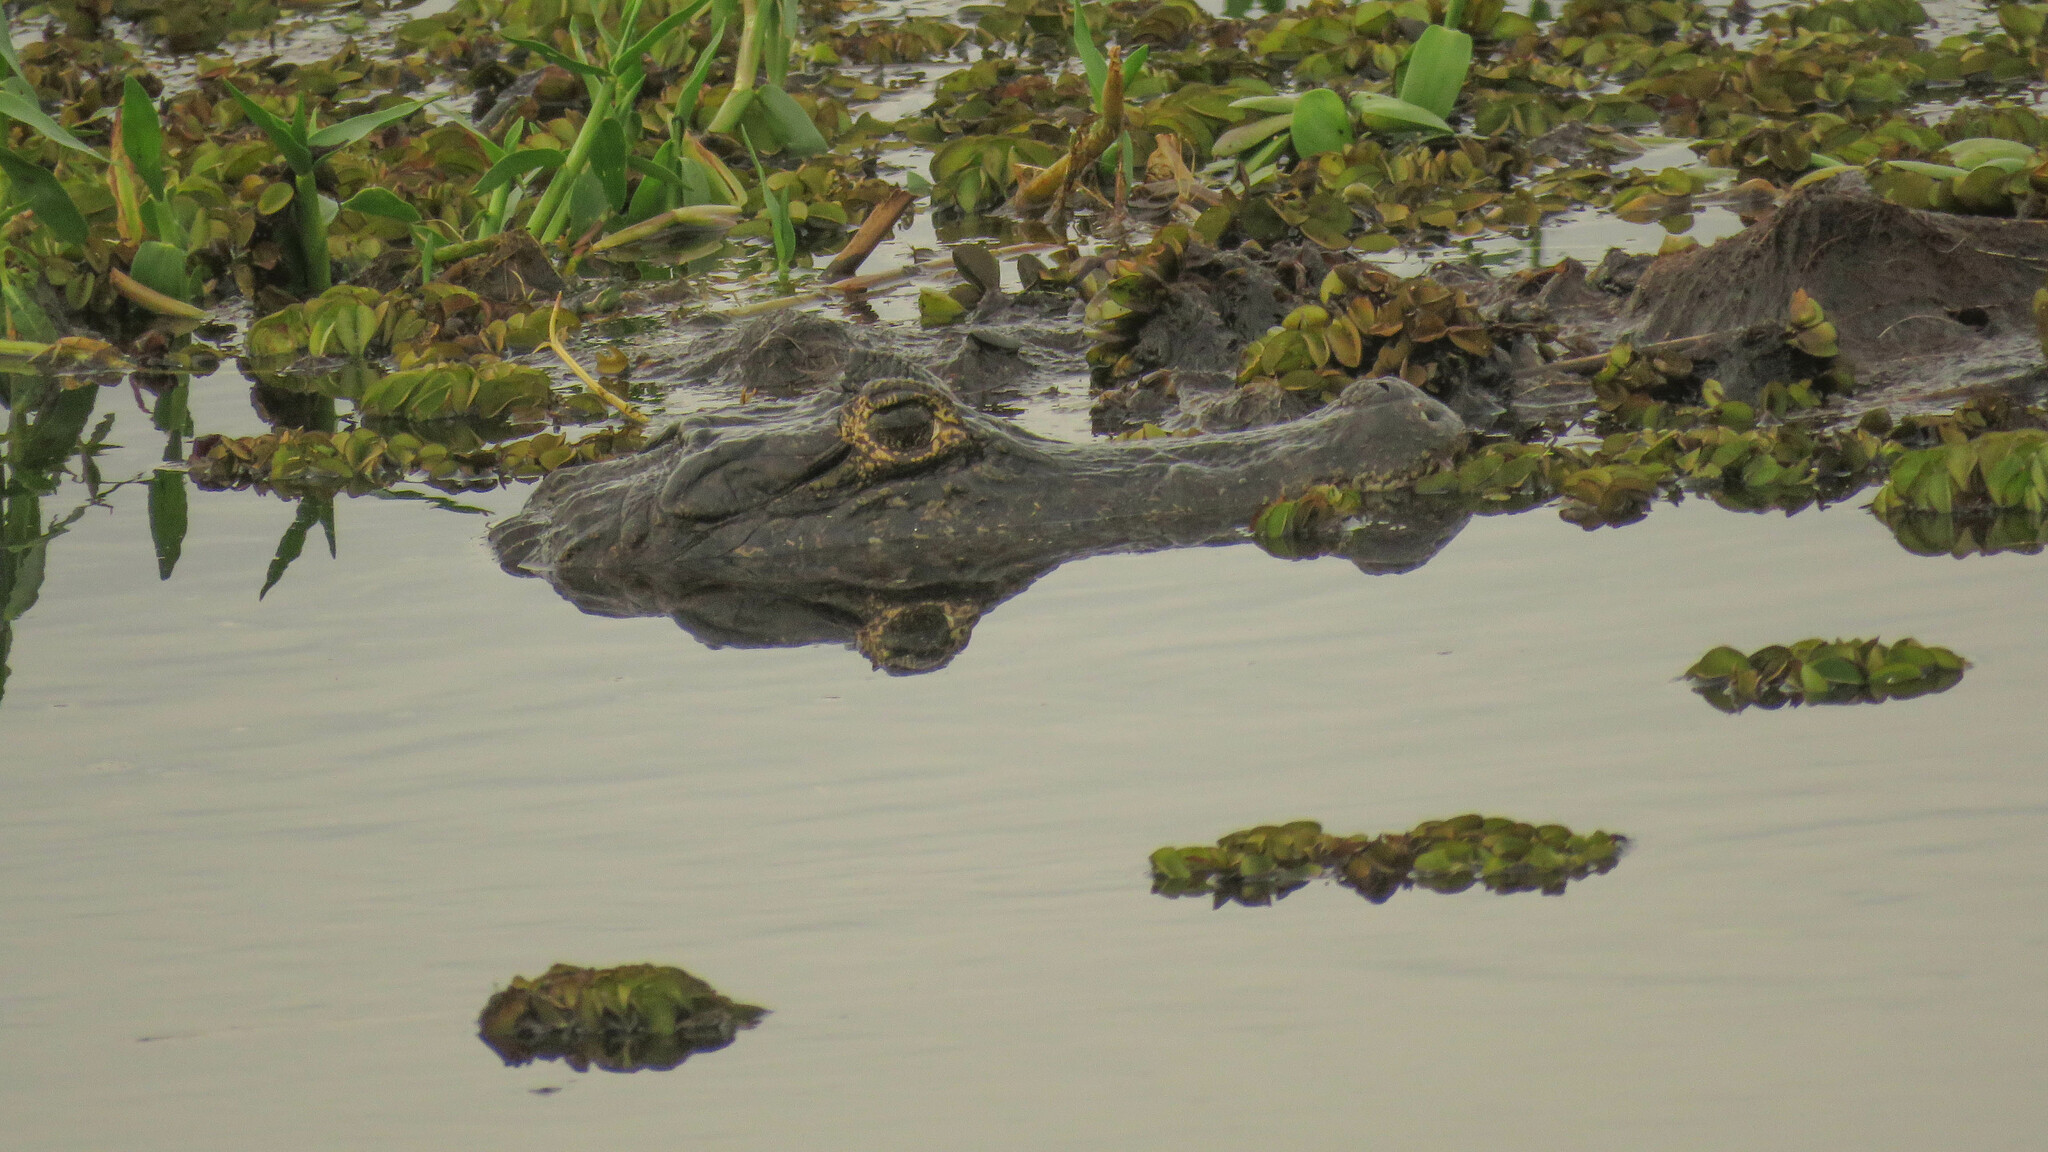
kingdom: Animalia
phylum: Chordata
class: Crocodylia
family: Alligatoridae
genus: Caiman
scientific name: Caiman yacare
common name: Yacare caiman
